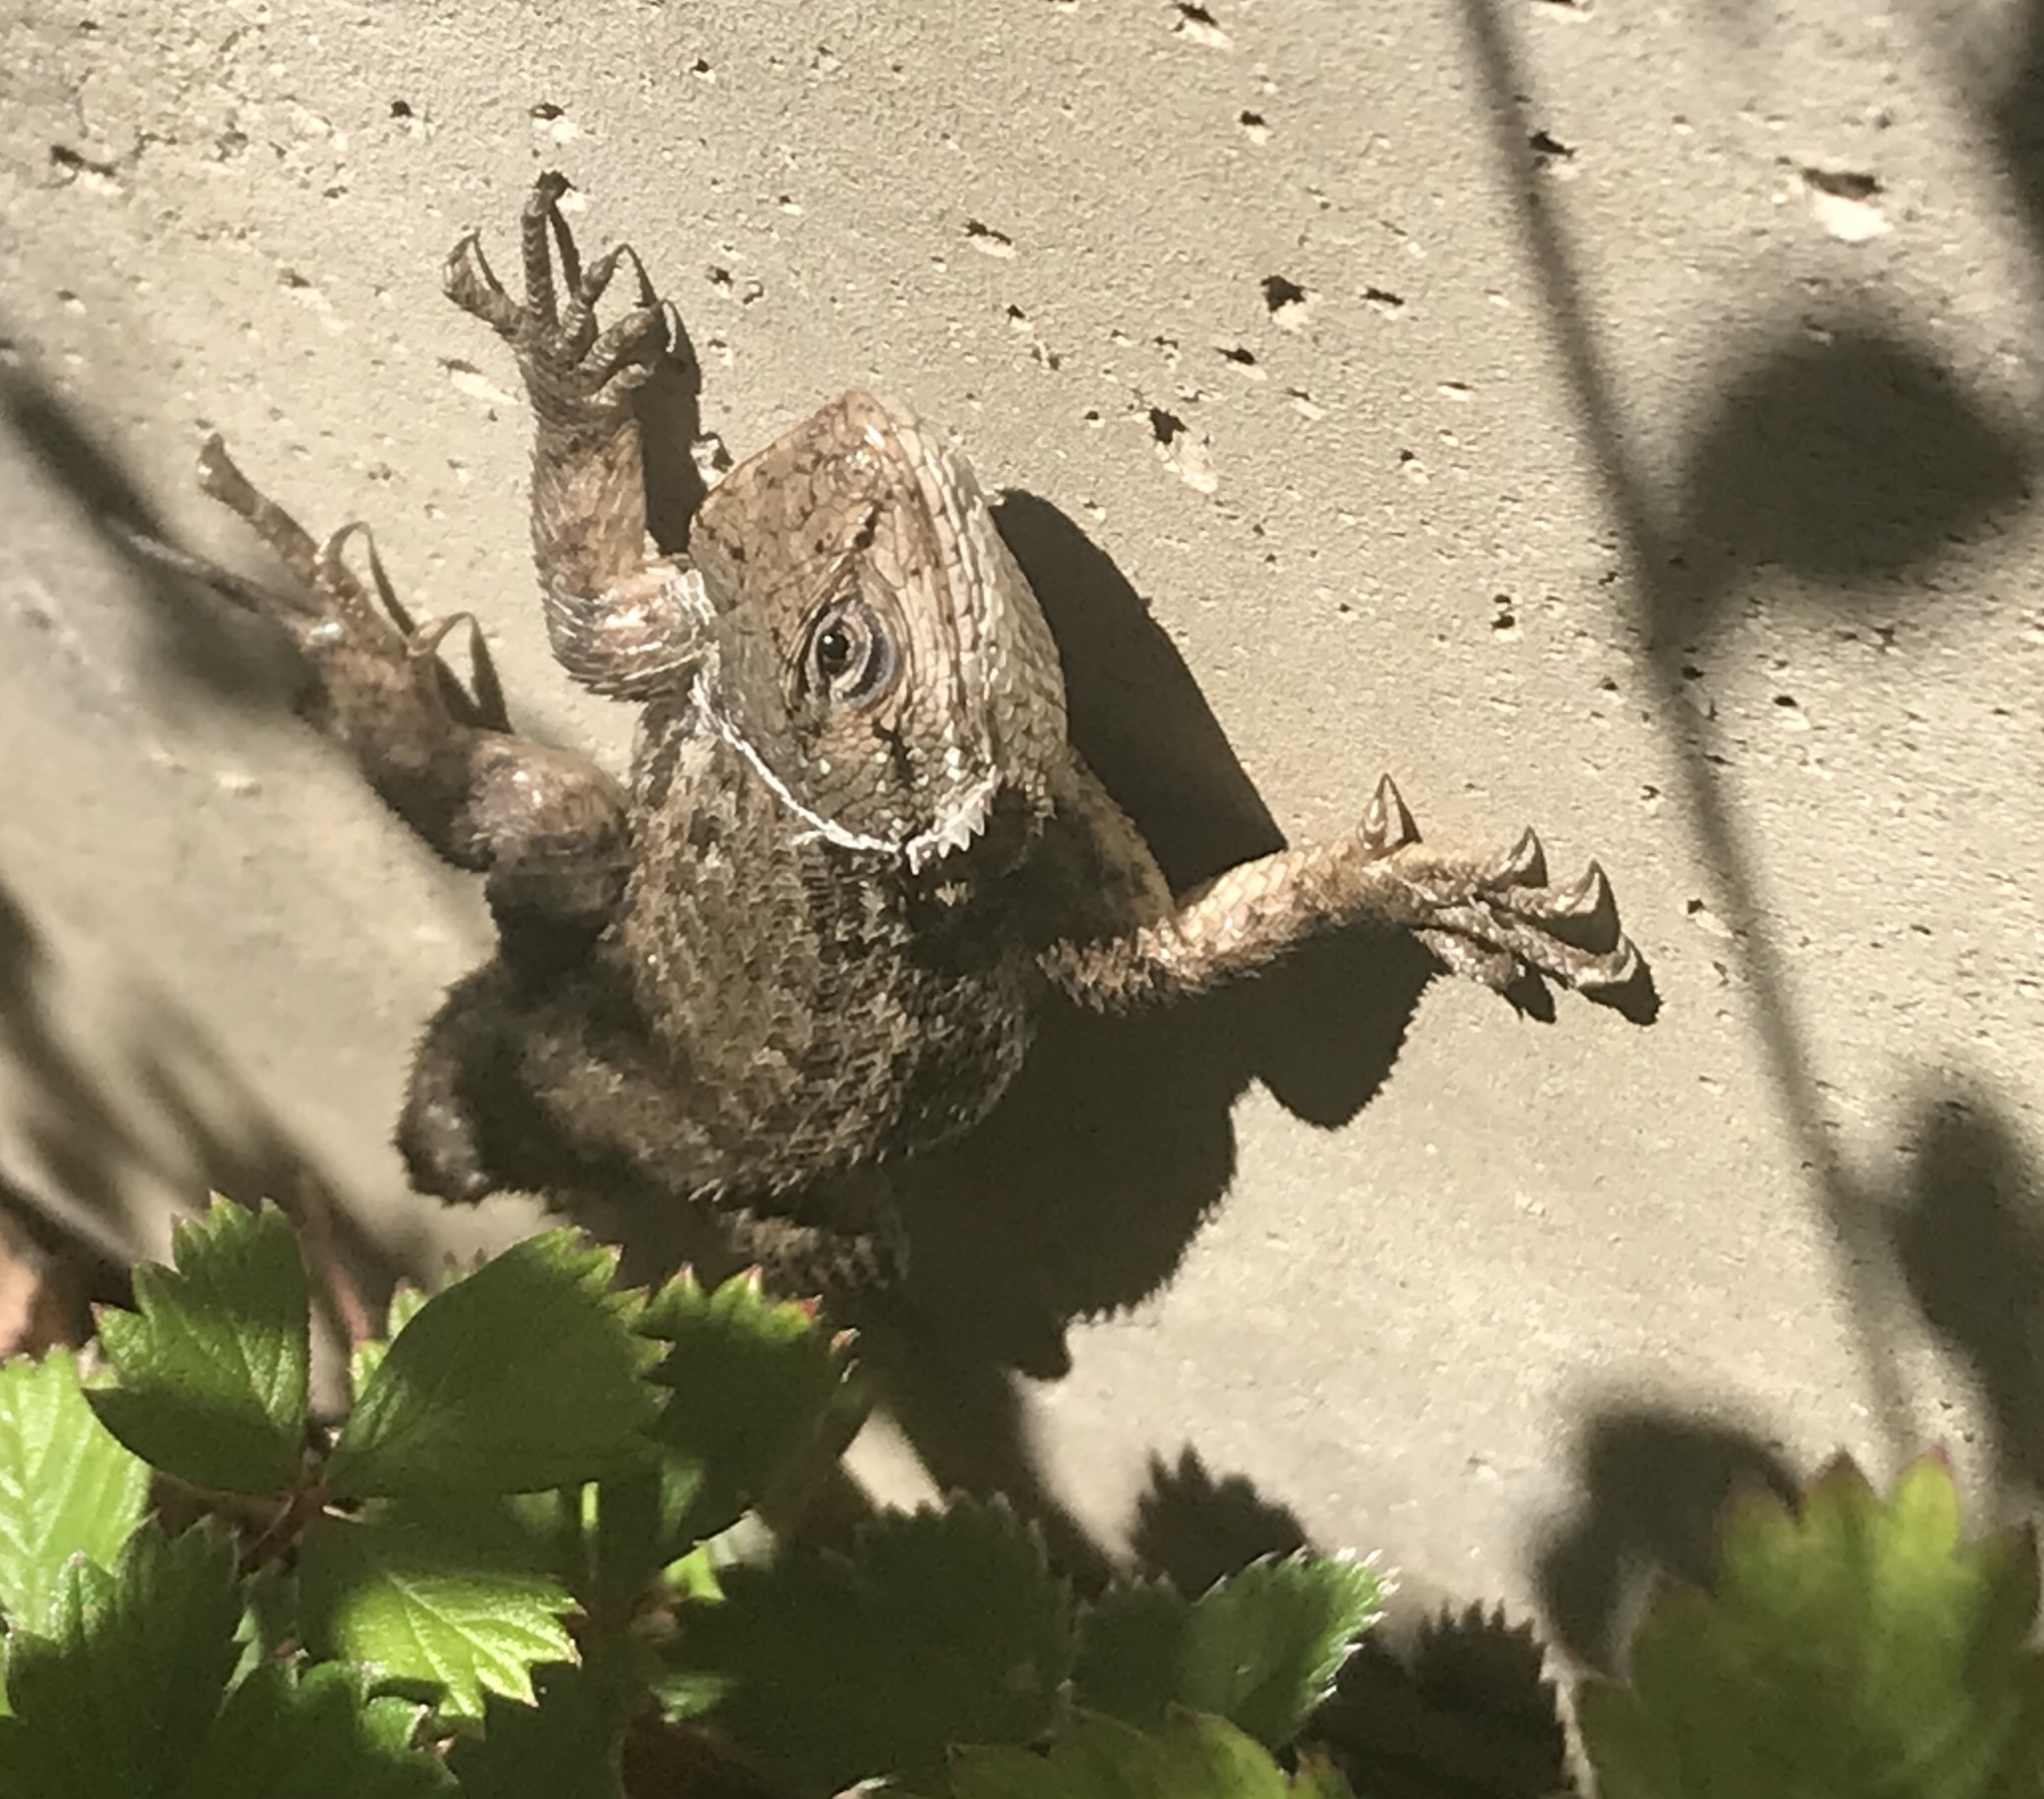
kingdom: Animalia
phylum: Chordata
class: Squamata
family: Phrynosomatidae
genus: Sceloporus
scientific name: Sceloporus occidentalis
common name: Western fence lizard
